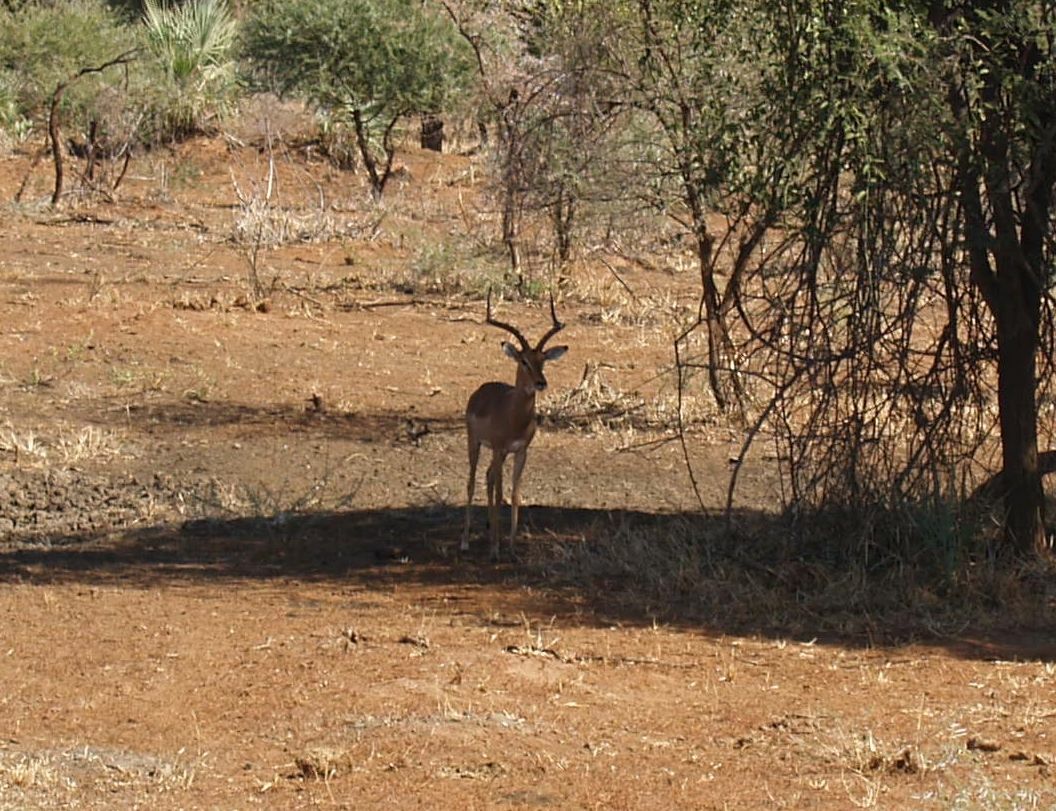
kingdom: Animalia
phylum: Chordata
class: Mammalia
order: Artiodactyla
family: Bovidae
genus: Aepyceros
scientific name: Aepyceros melampus
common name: Impala
